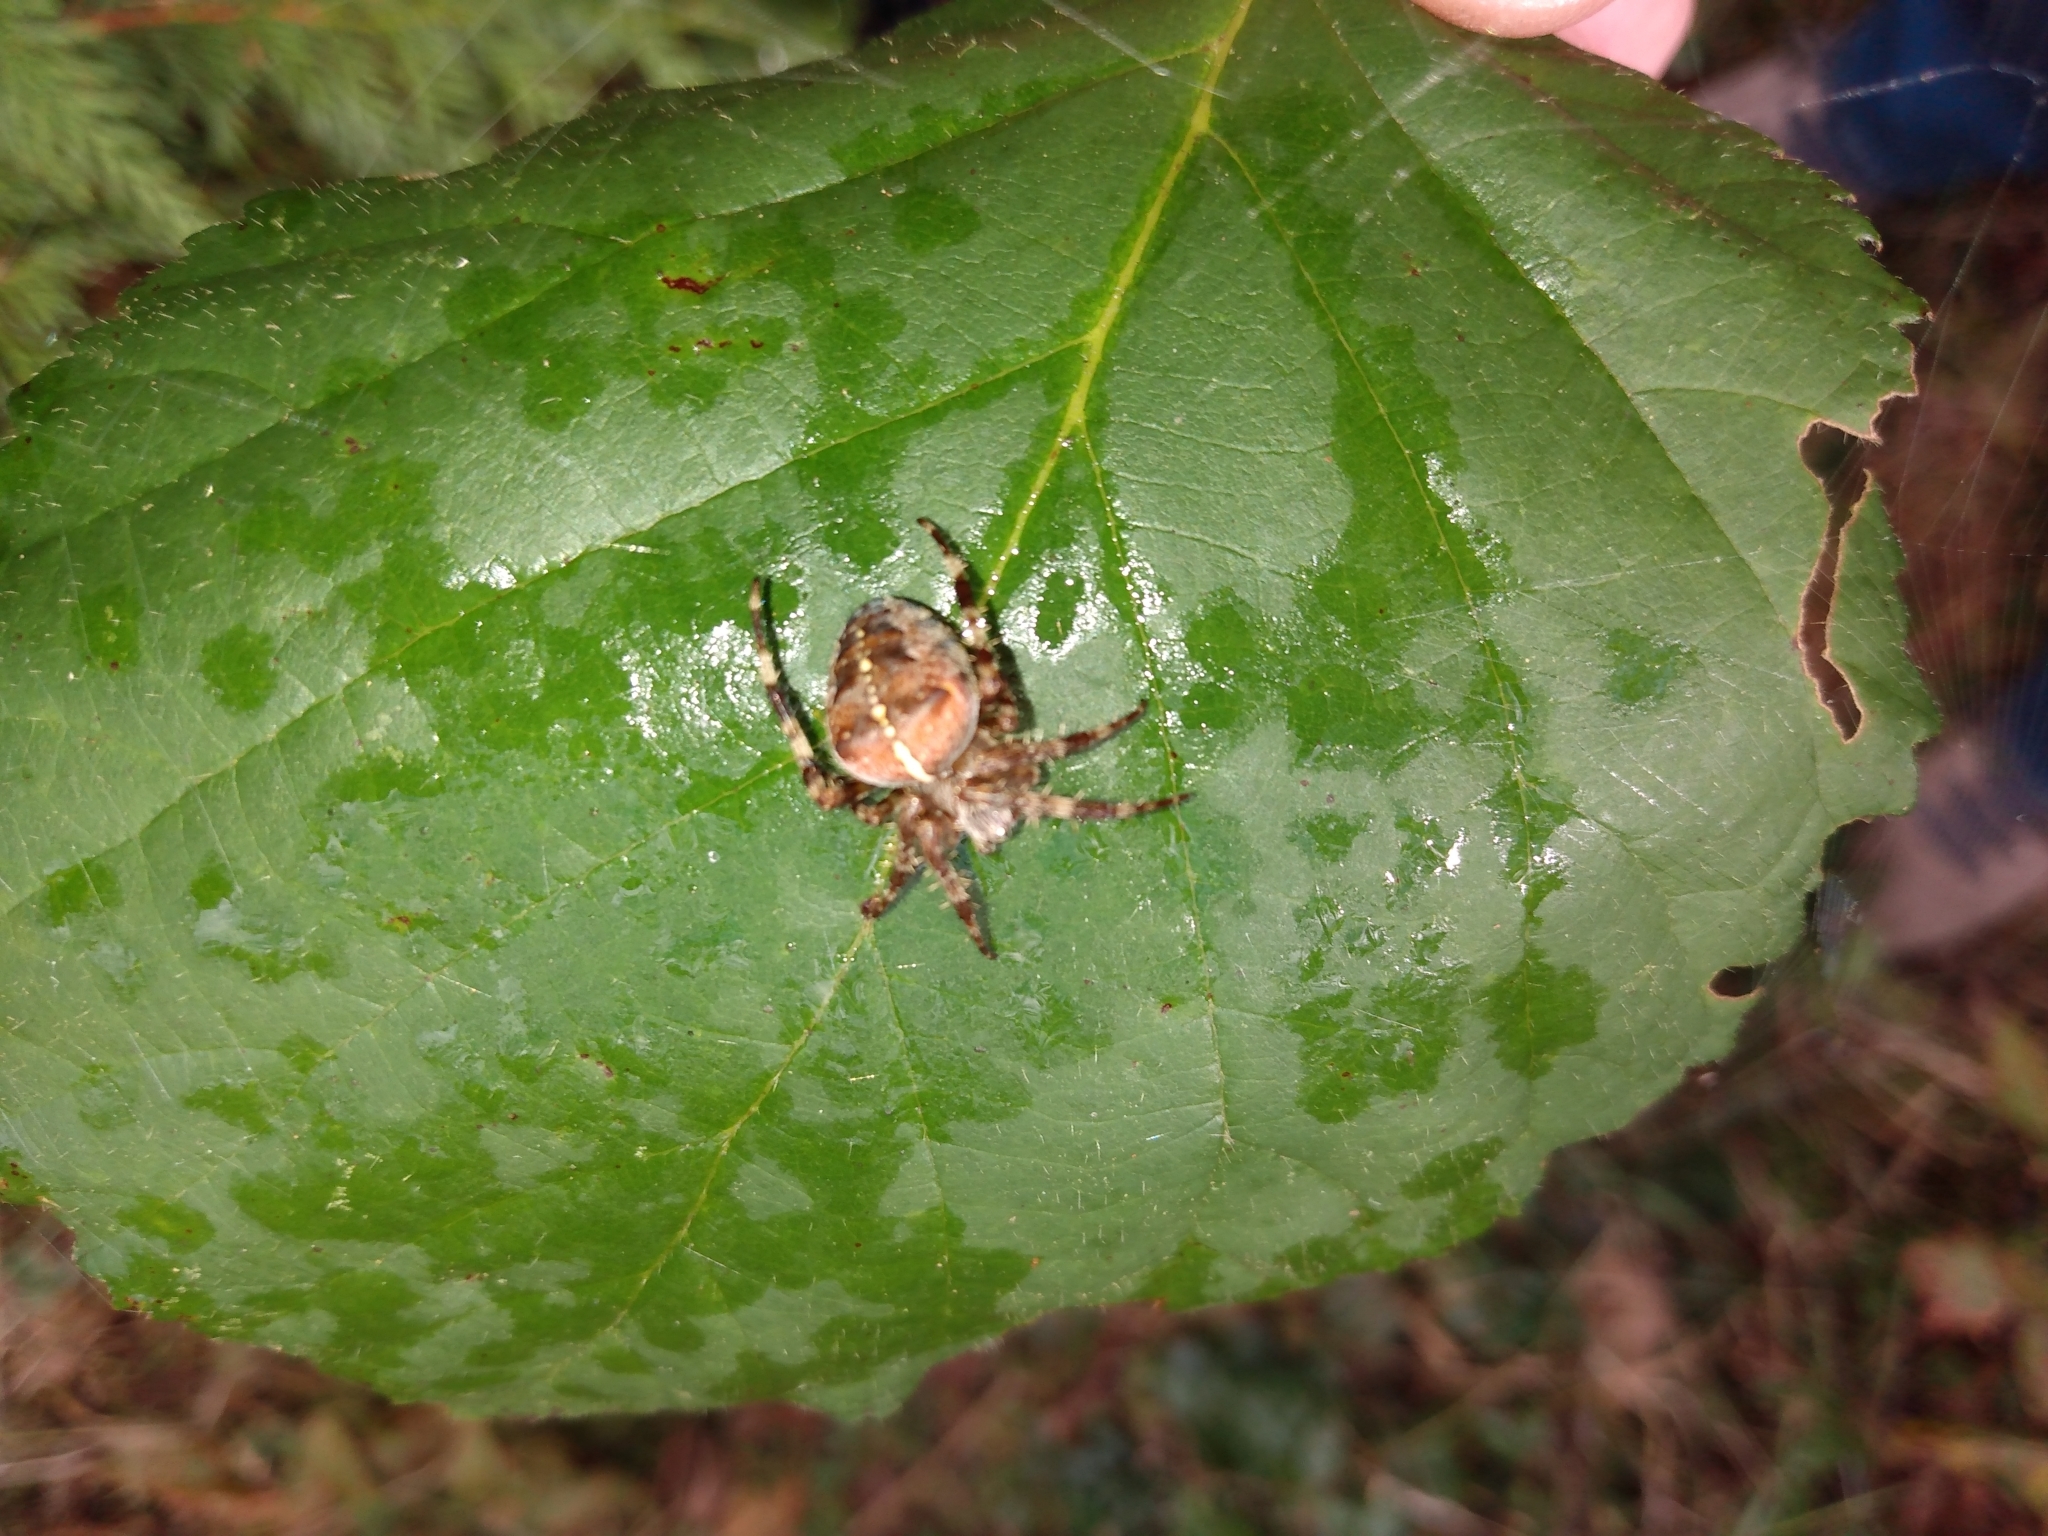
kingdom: Animalia
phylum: Arthropoda
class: Arachnida
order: Araneae
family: Araneidae
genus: Araneus
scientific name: Araneus diadematus
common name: Cross orbweaver
